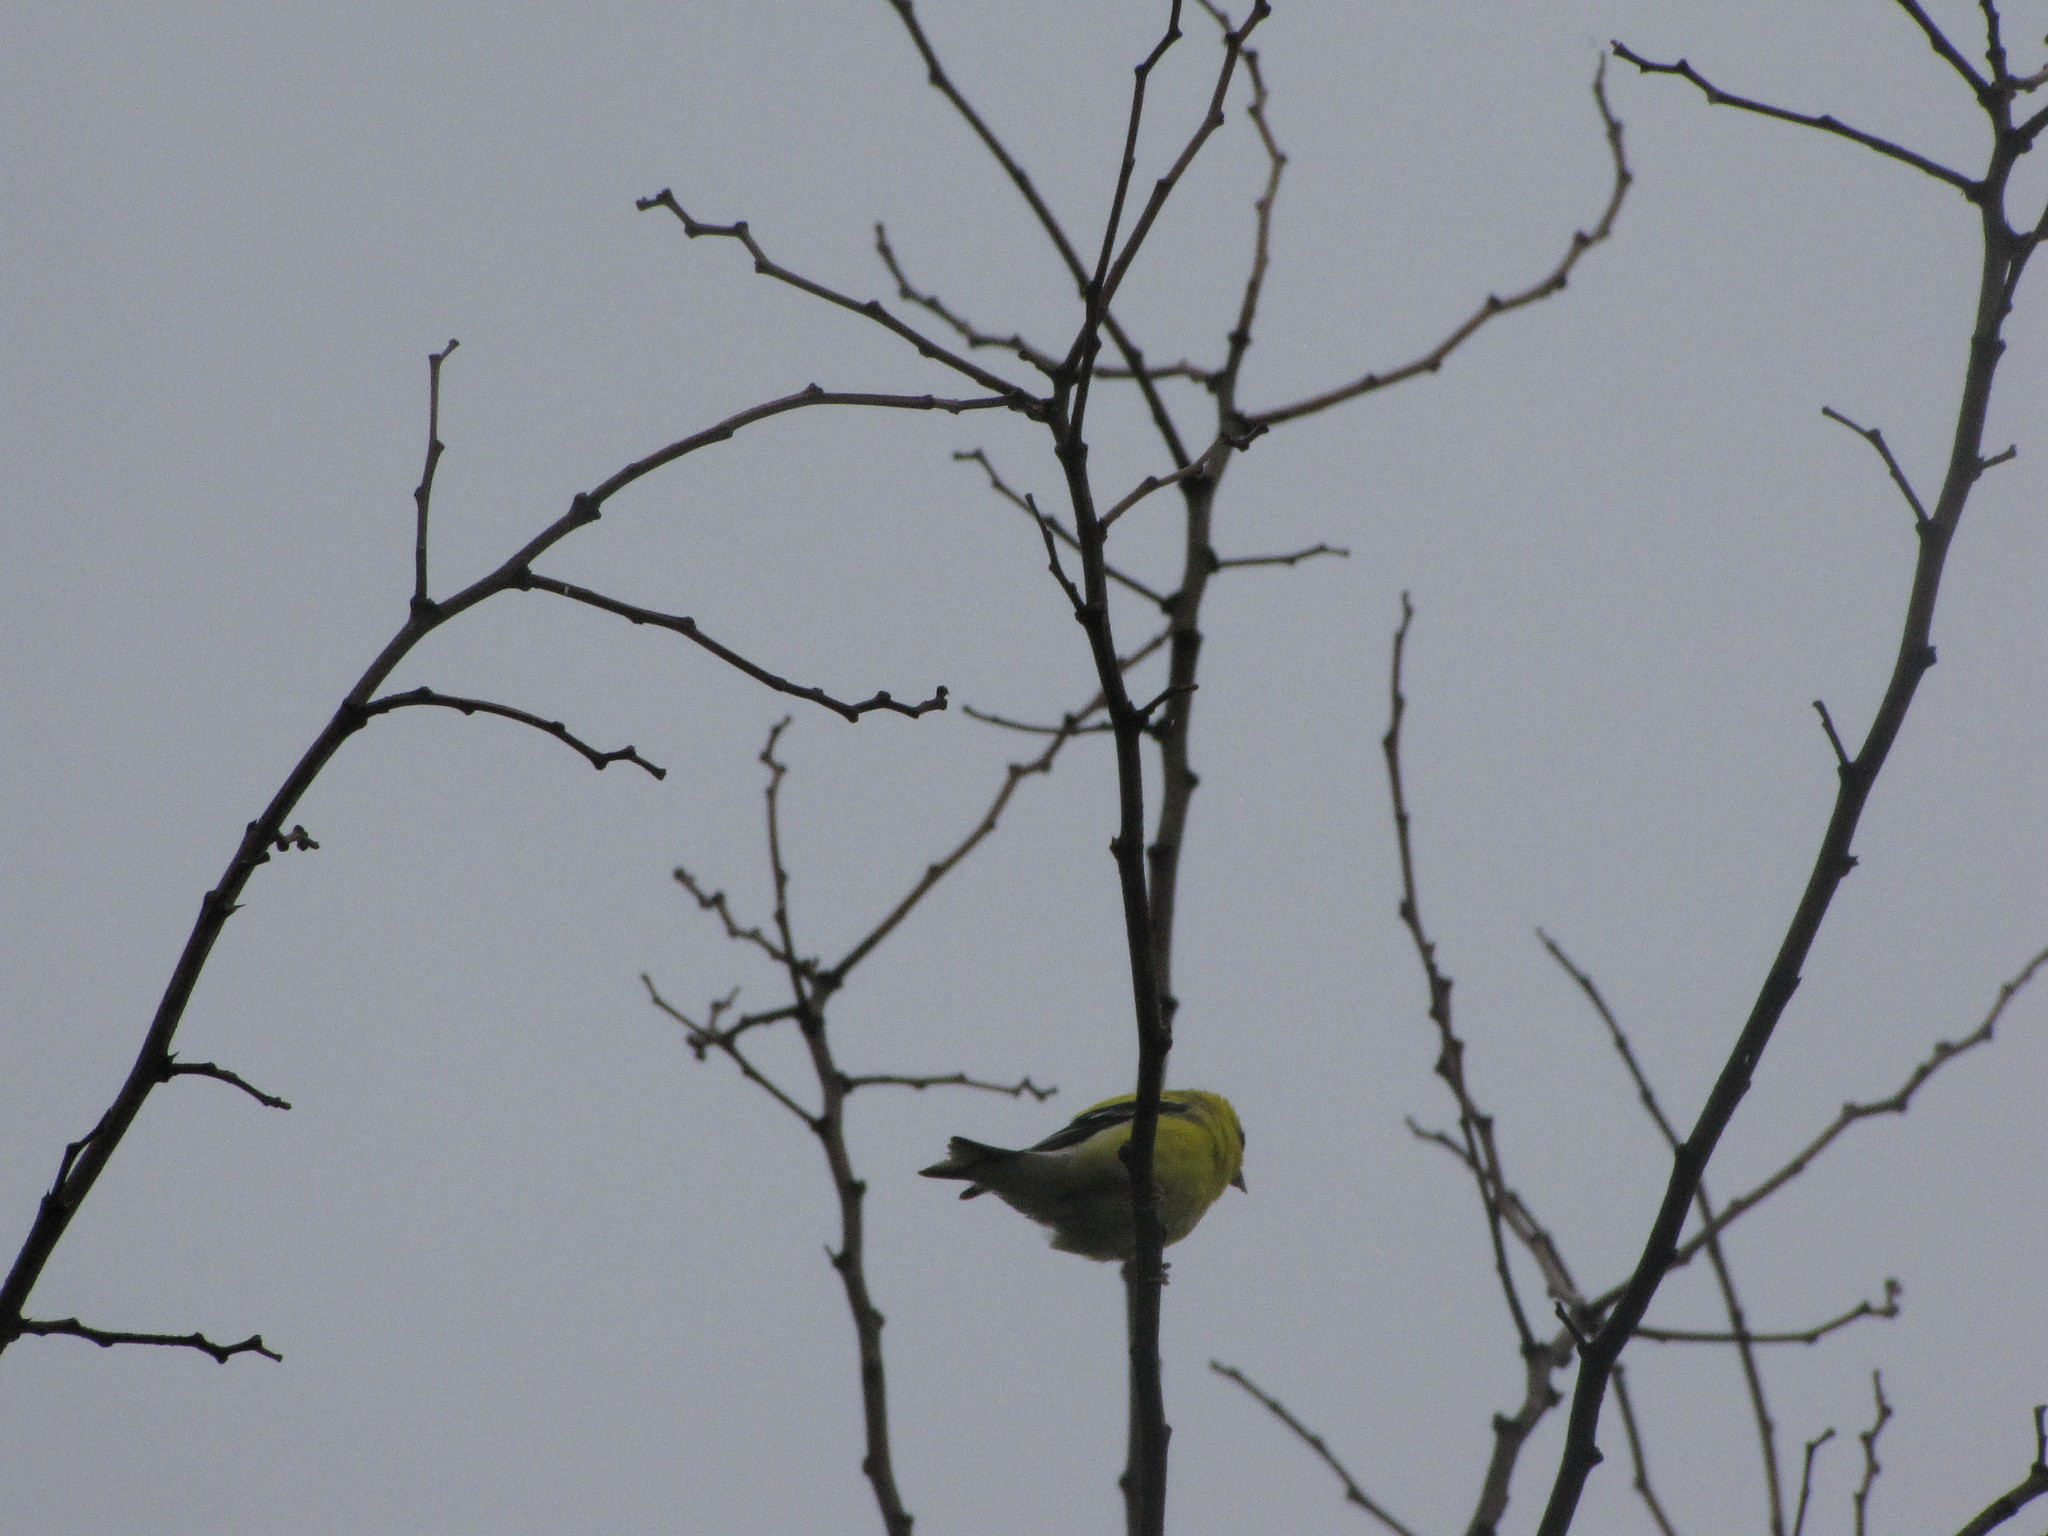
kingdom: Animalia
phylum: Chordata
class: Aves
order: Passeriformes
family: Fringillidae
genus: Spinus
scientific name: Spinus tristis
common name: American goldfinch
